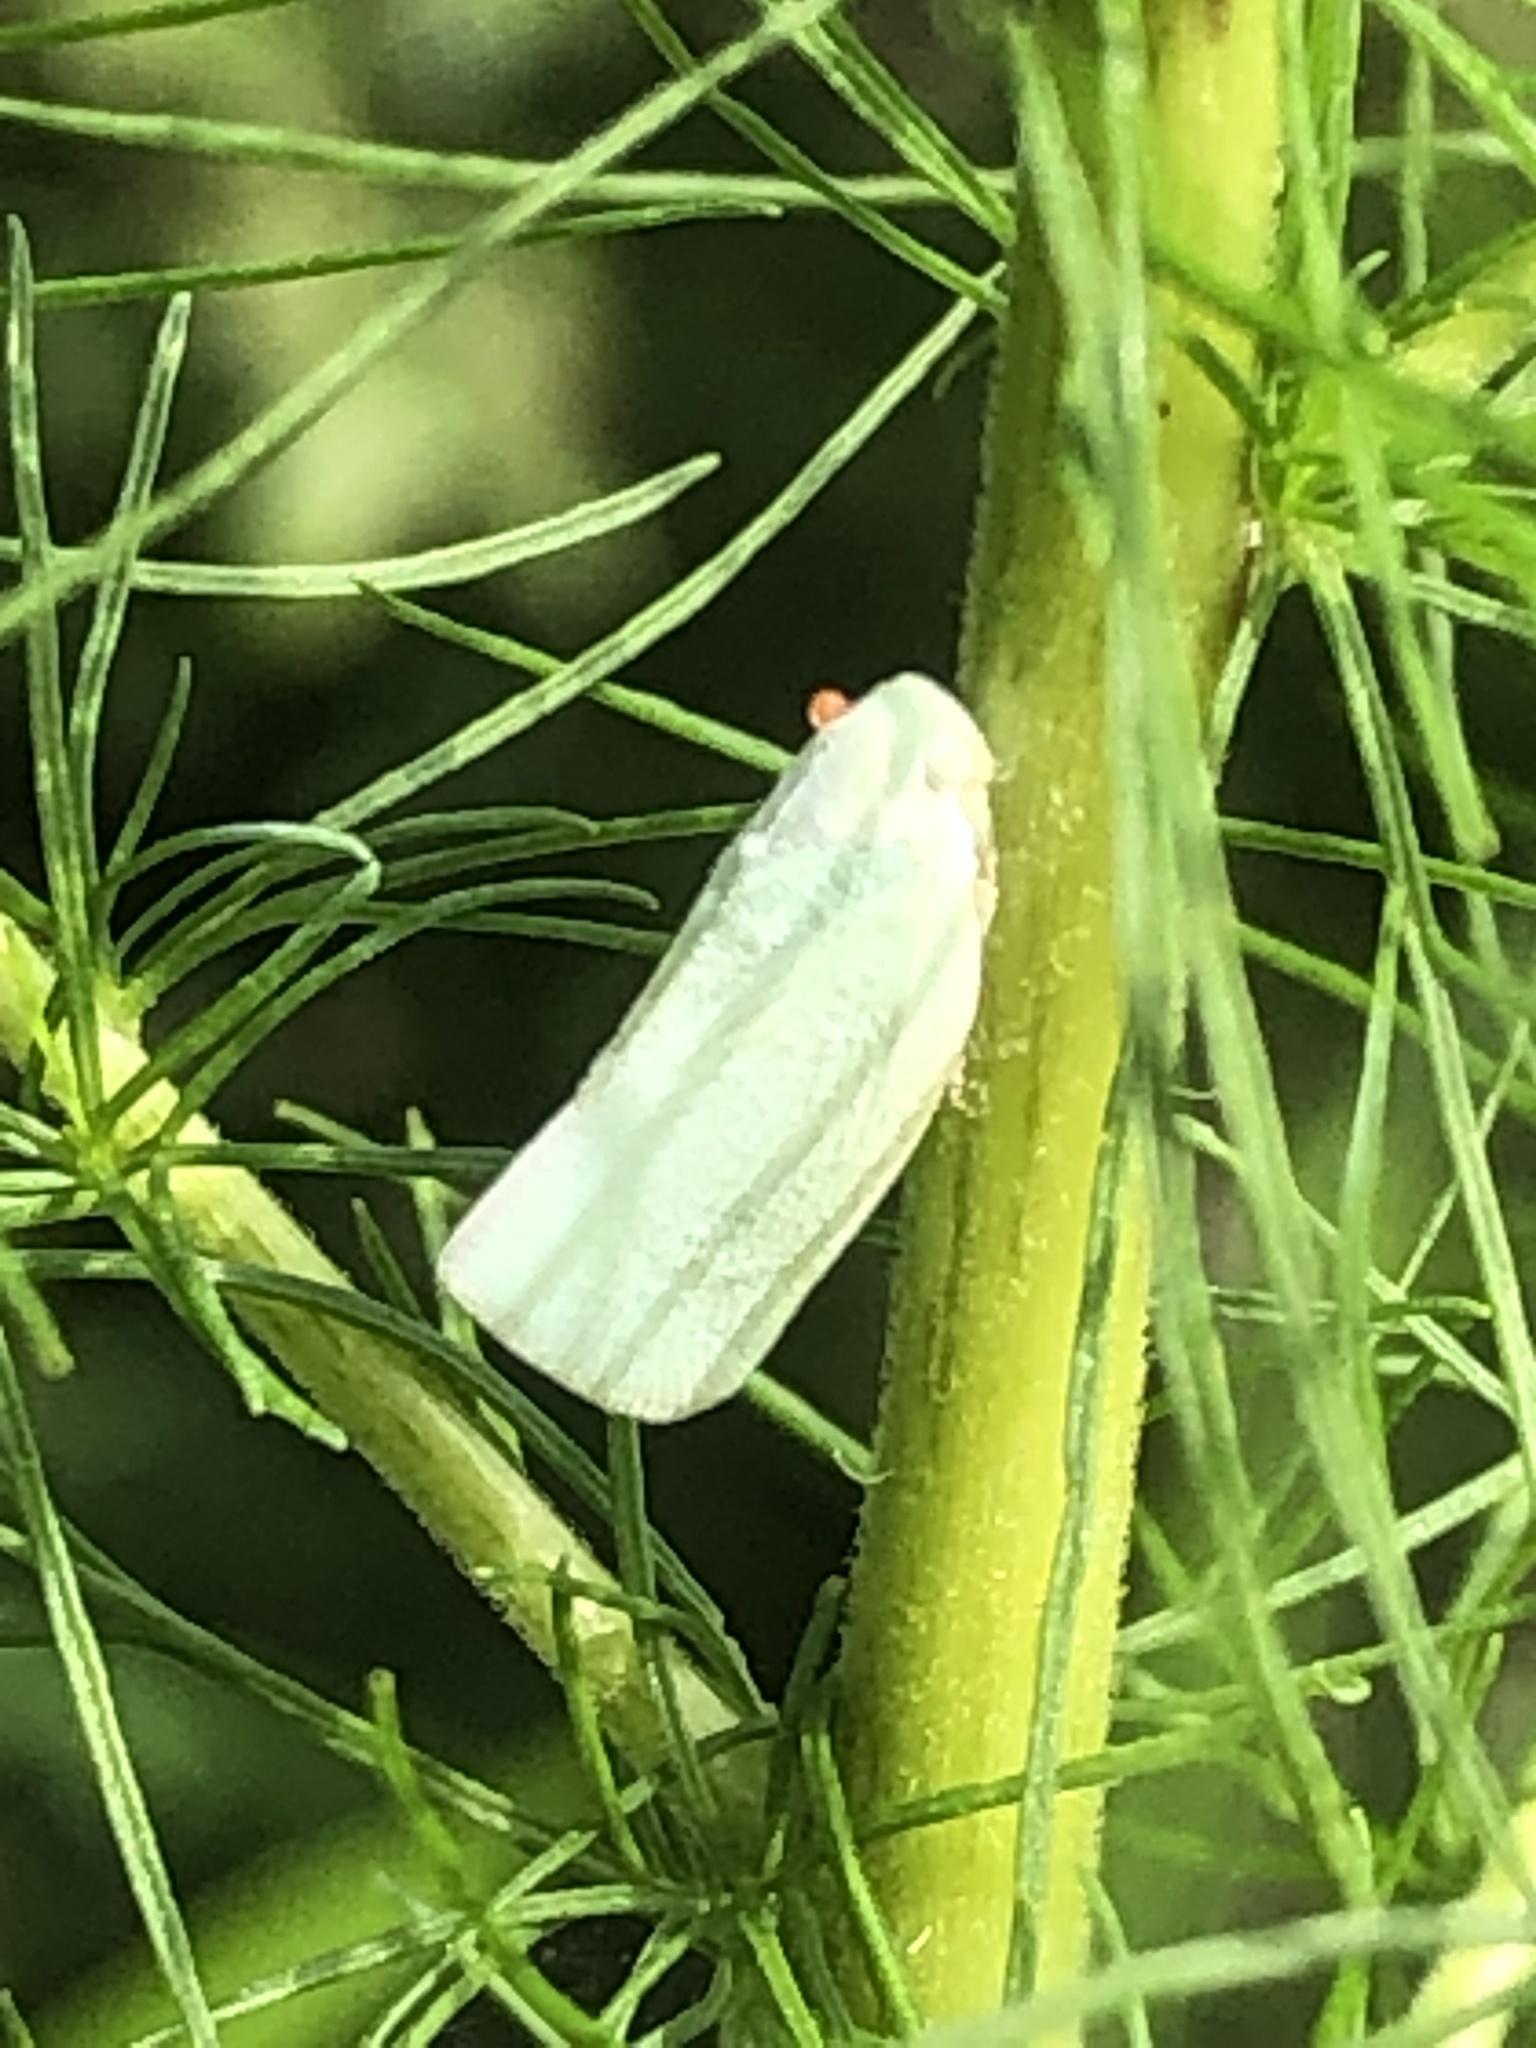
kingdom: Animalia
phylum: Arthropoda
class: Insecta
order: Hemiptera
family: Flatidae
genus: Flatormenis
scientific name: Flatormenis proxima
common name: Northern flatid planthopper
